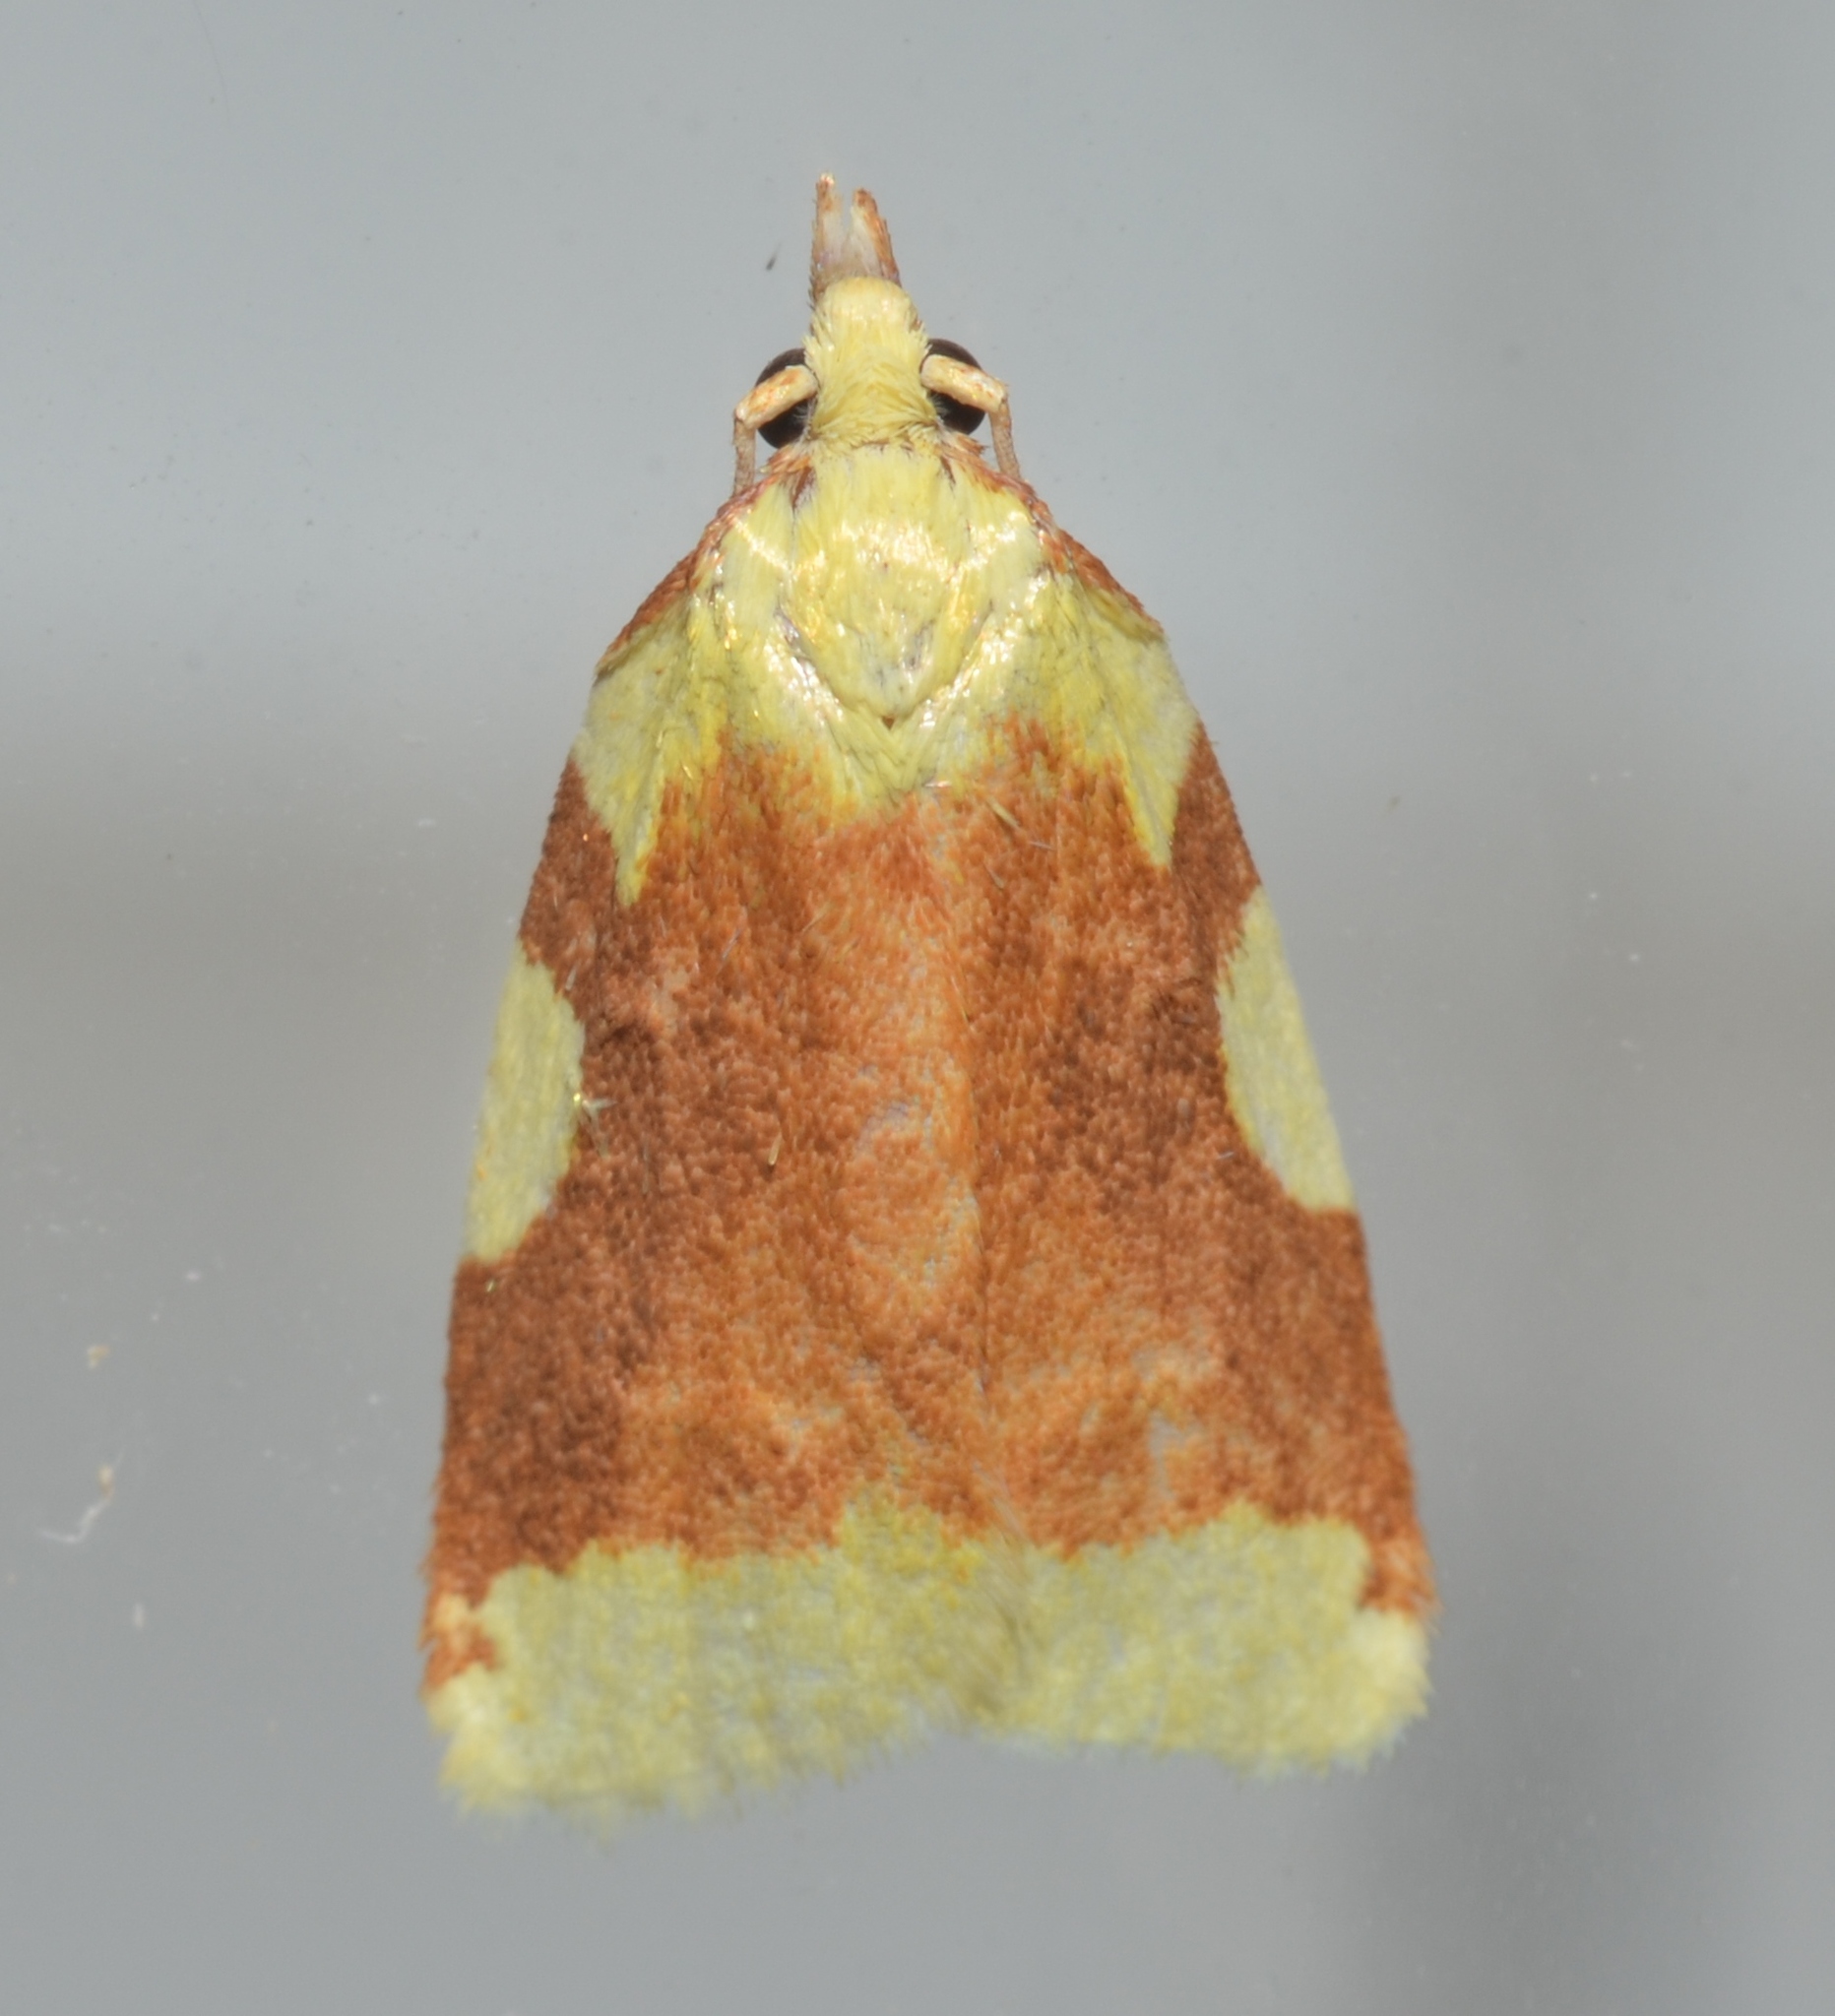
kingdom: Animalia
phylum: Arthropoda
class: Insecta
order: Lepidoptera
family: Tortricidae
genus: Cenopis
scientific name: Cenopis niveana
